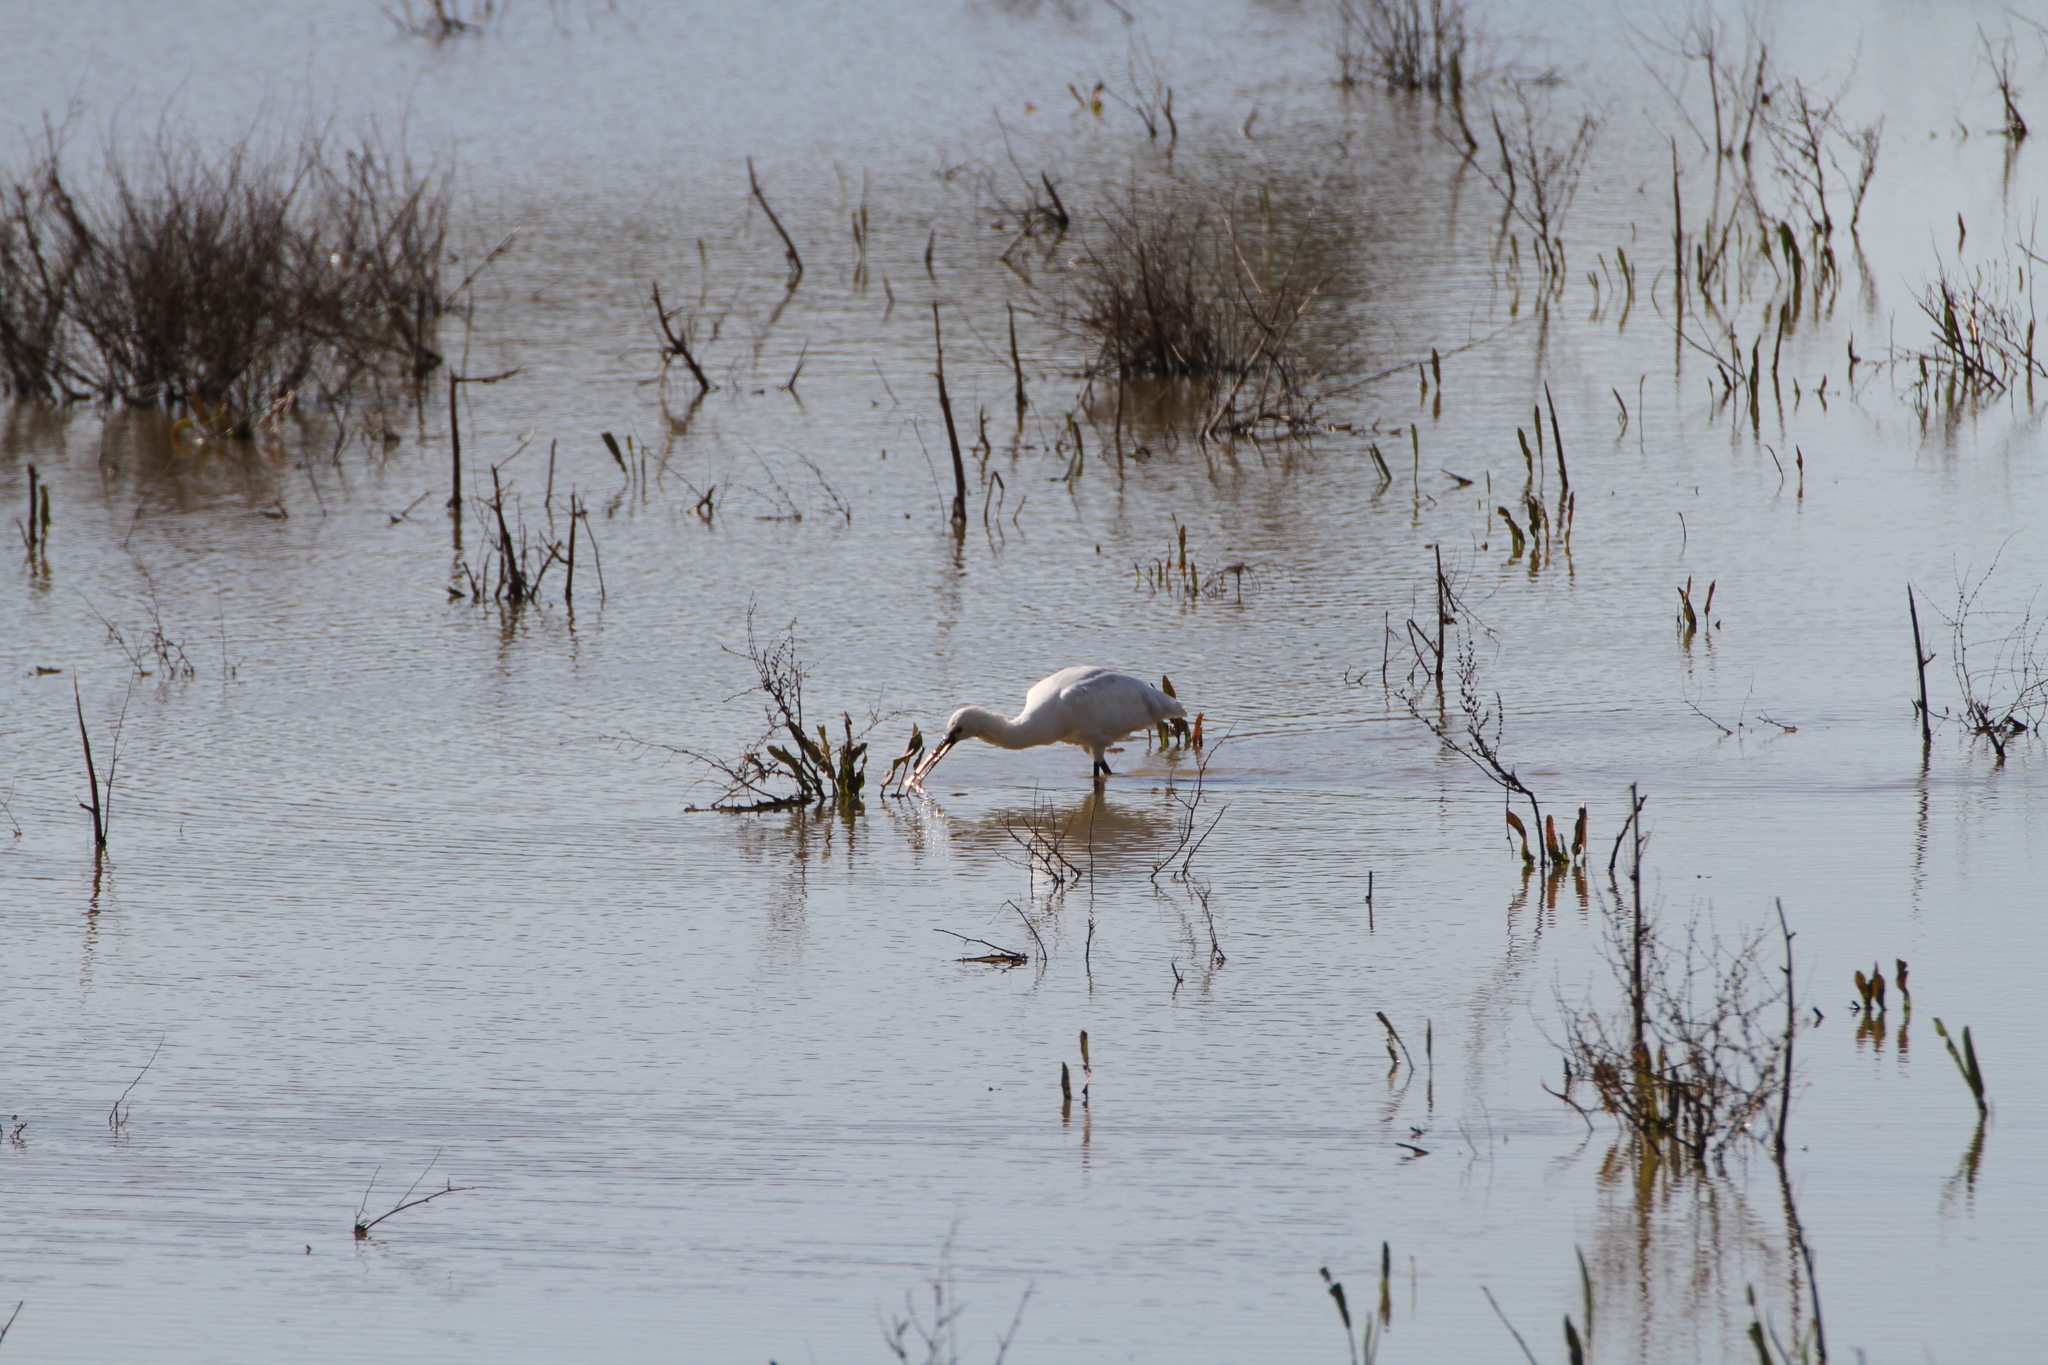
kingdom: Animalia
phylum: Chordata
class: Aves
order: Pelecaniformes
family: Threskiornithidae
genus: Platalea
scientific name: Platalea leucorodia
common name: Eurasian spoonbill
